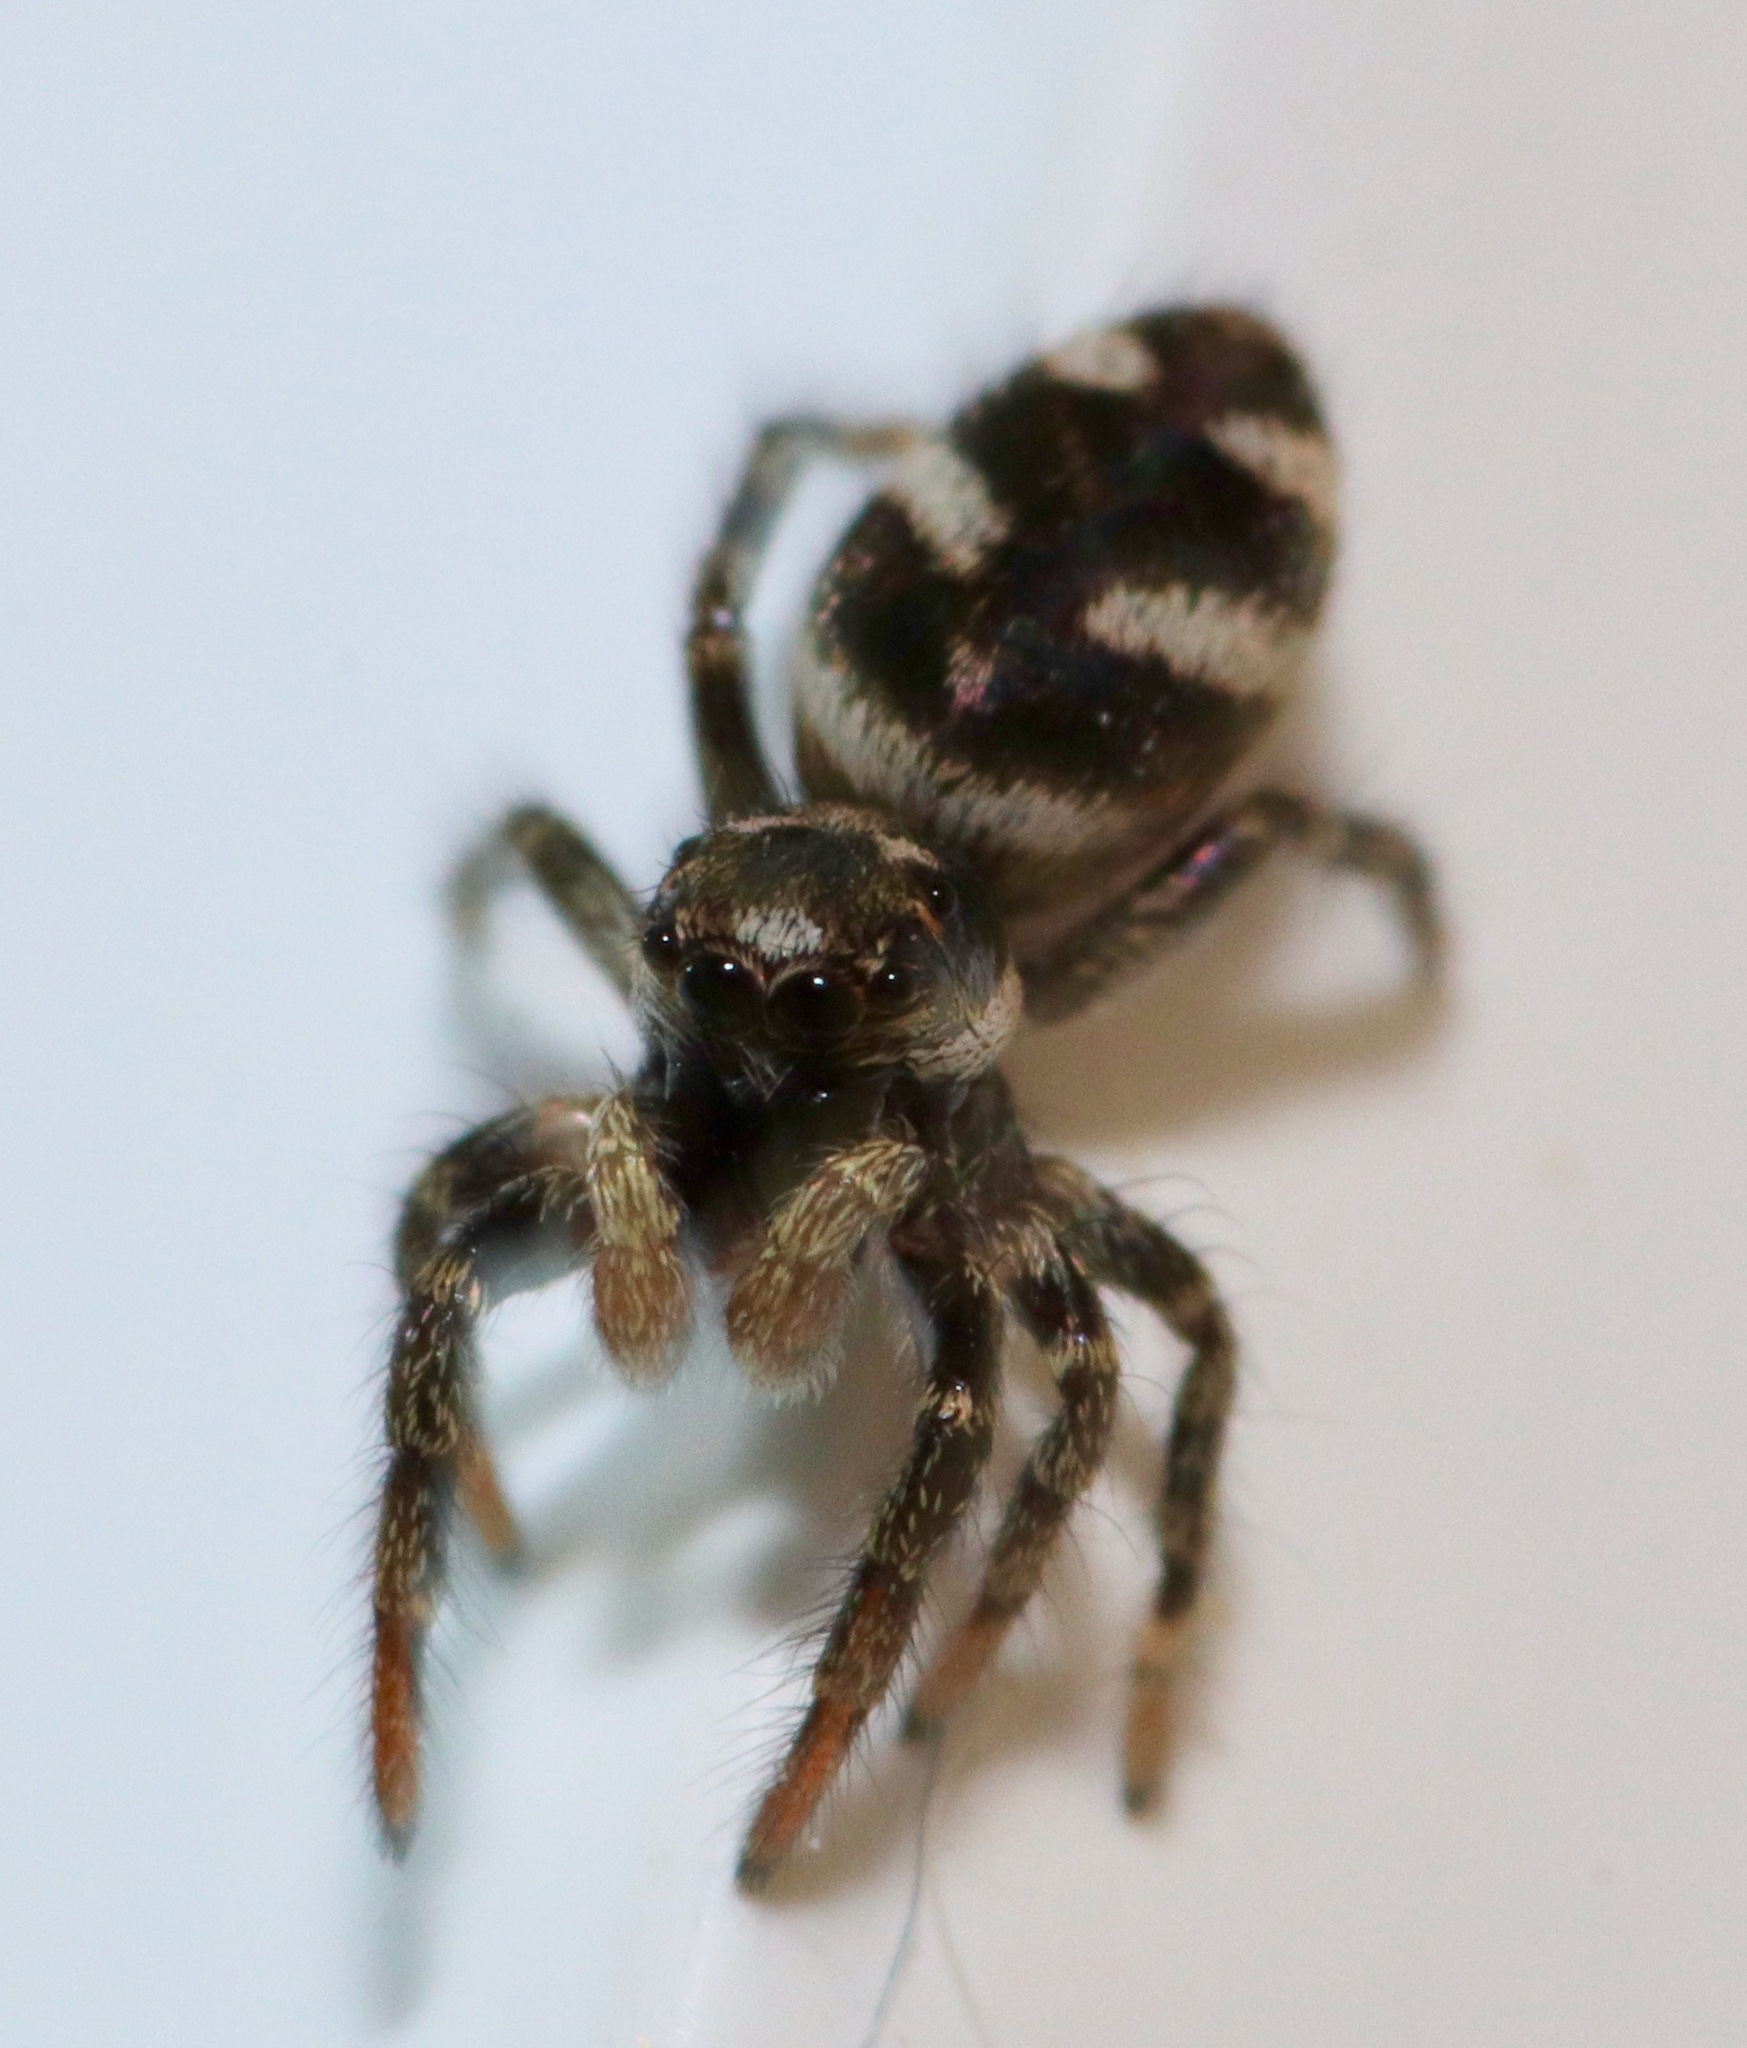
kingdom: Animalia
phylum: Arthropoda
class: Arachnida
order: Araneae
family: Salticidae
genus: Salticus
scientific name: Salticus scenicus
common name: Zebra jumper
